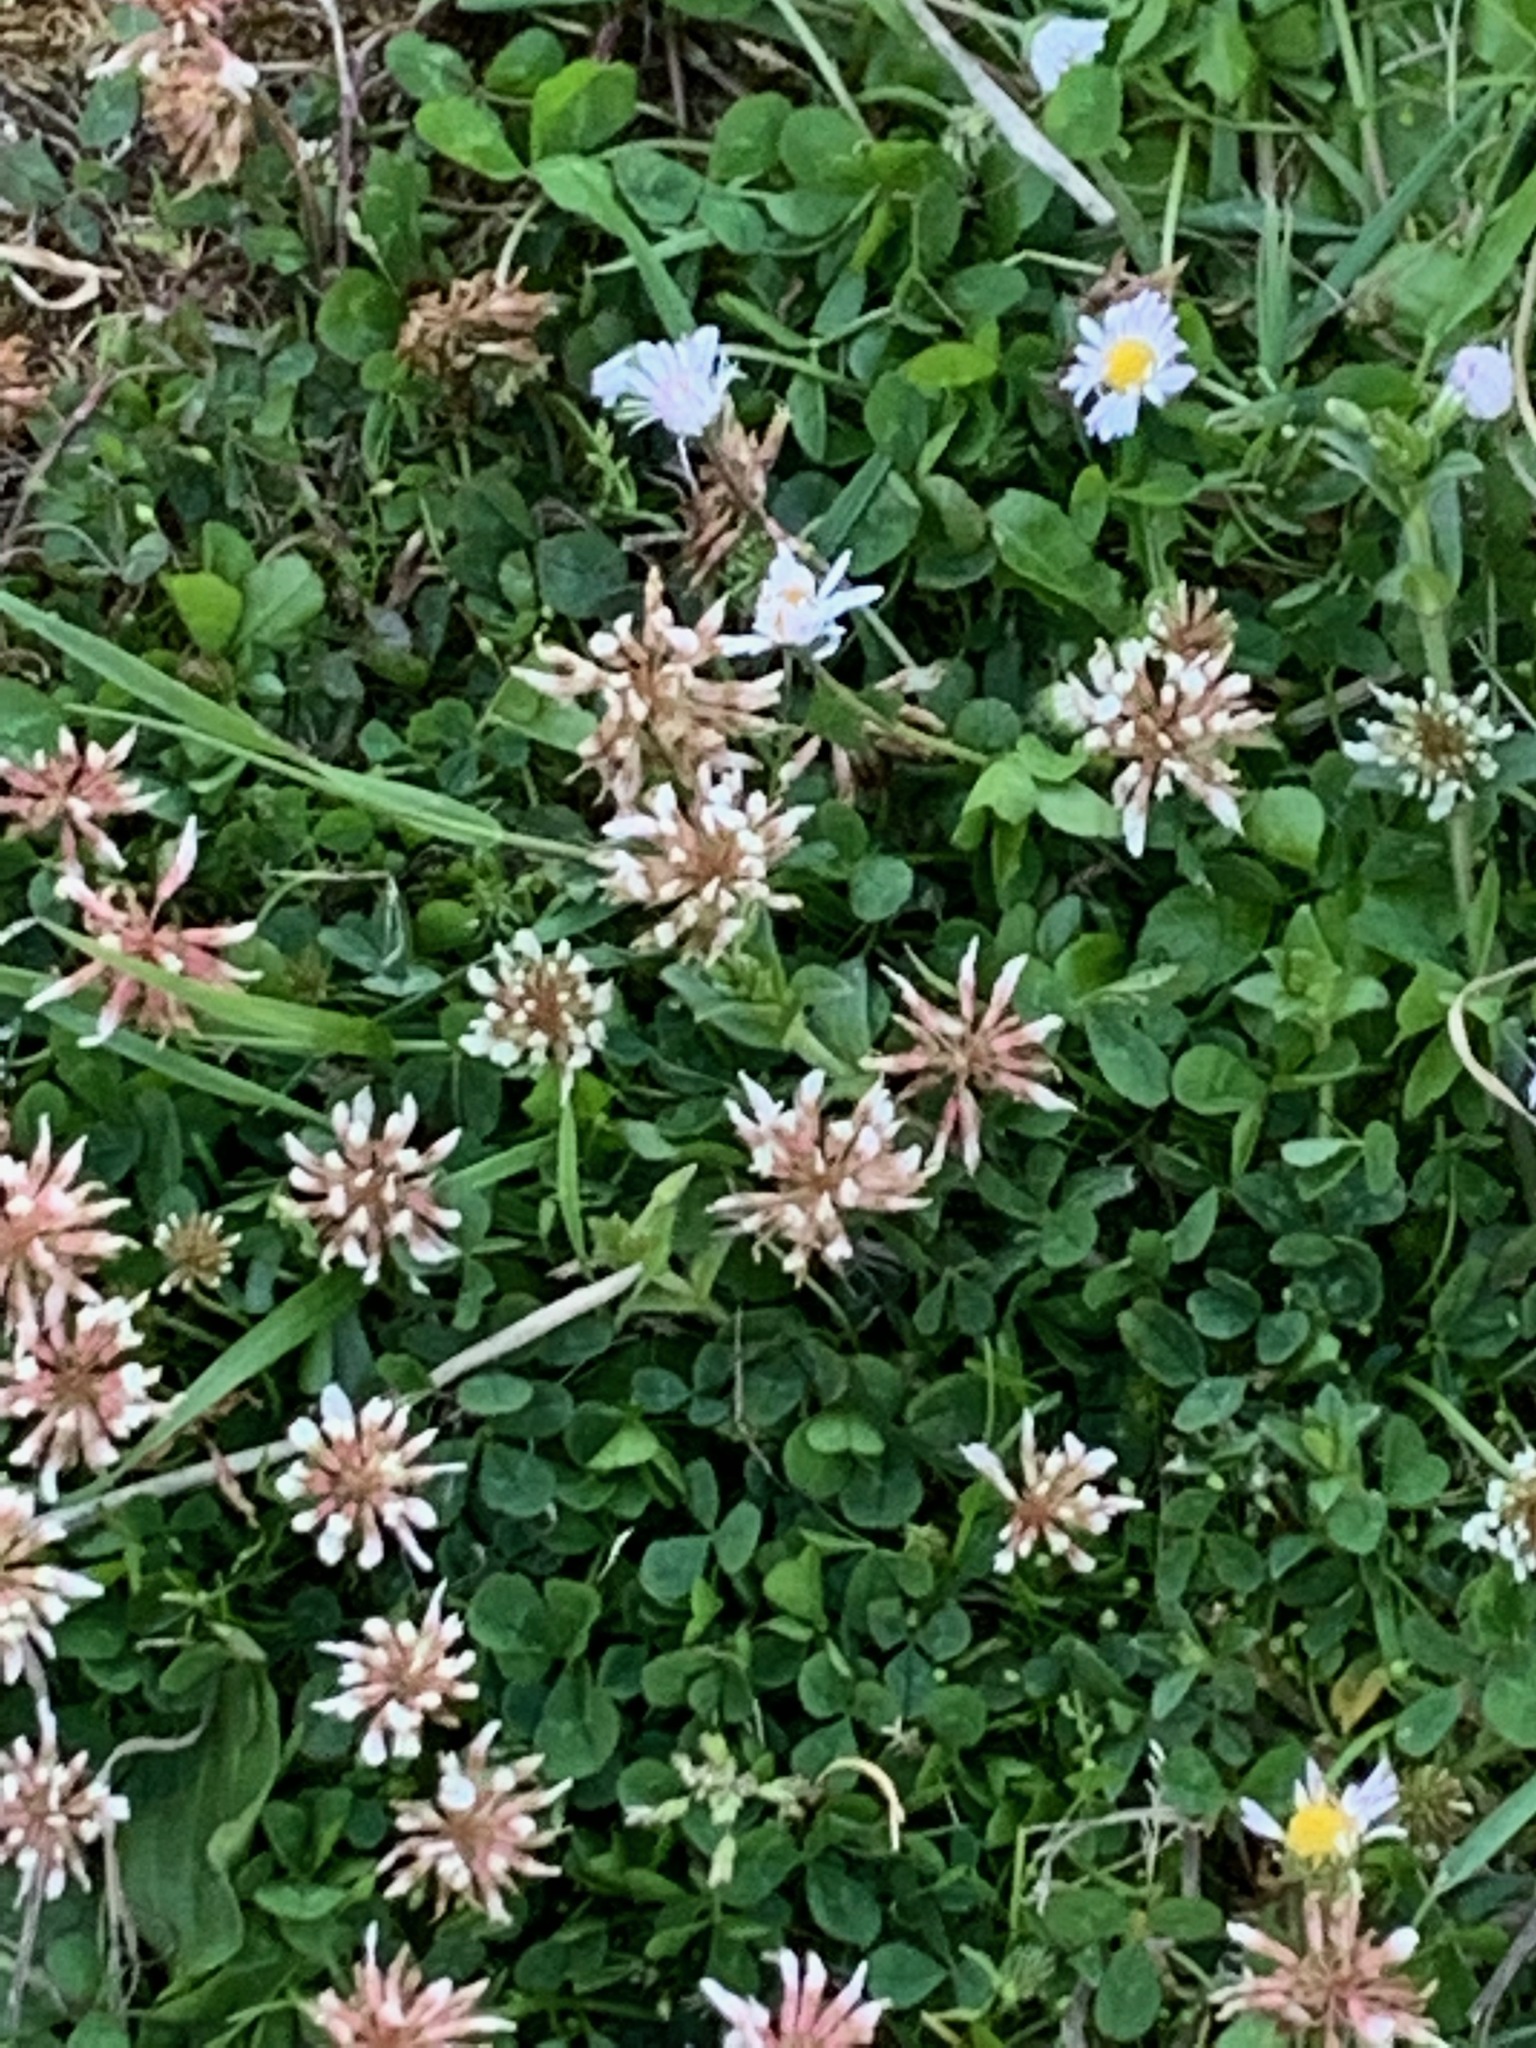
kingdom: Plantae
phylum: Tracheophyta
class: Magnoliopsida
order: Fabales
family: Fabaceae
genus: Trifolium
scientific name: Trifolium repens
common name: White clover
